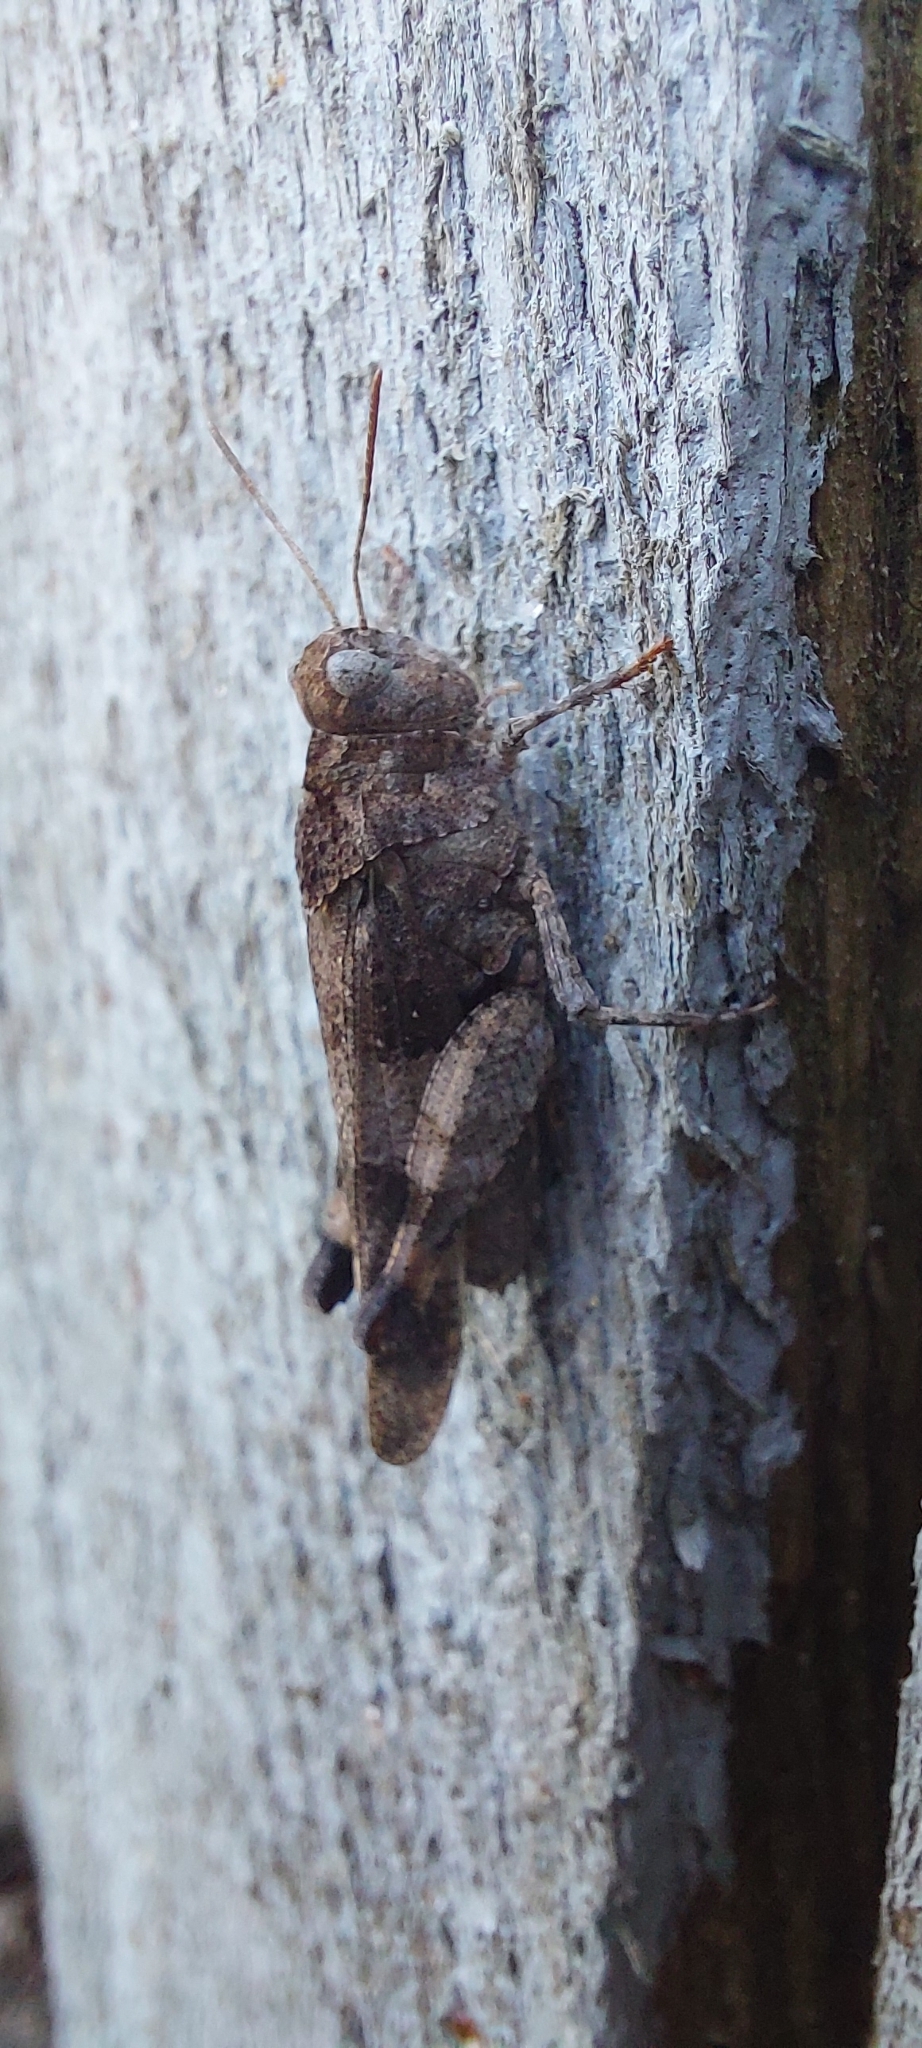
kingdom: Animalia
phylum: Arthropoda
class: Insecta
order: Orthoptera
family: Acrididae
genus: Oedipoda
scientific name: Oedipoda caerulescens
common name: Blue-winged grasshopper
